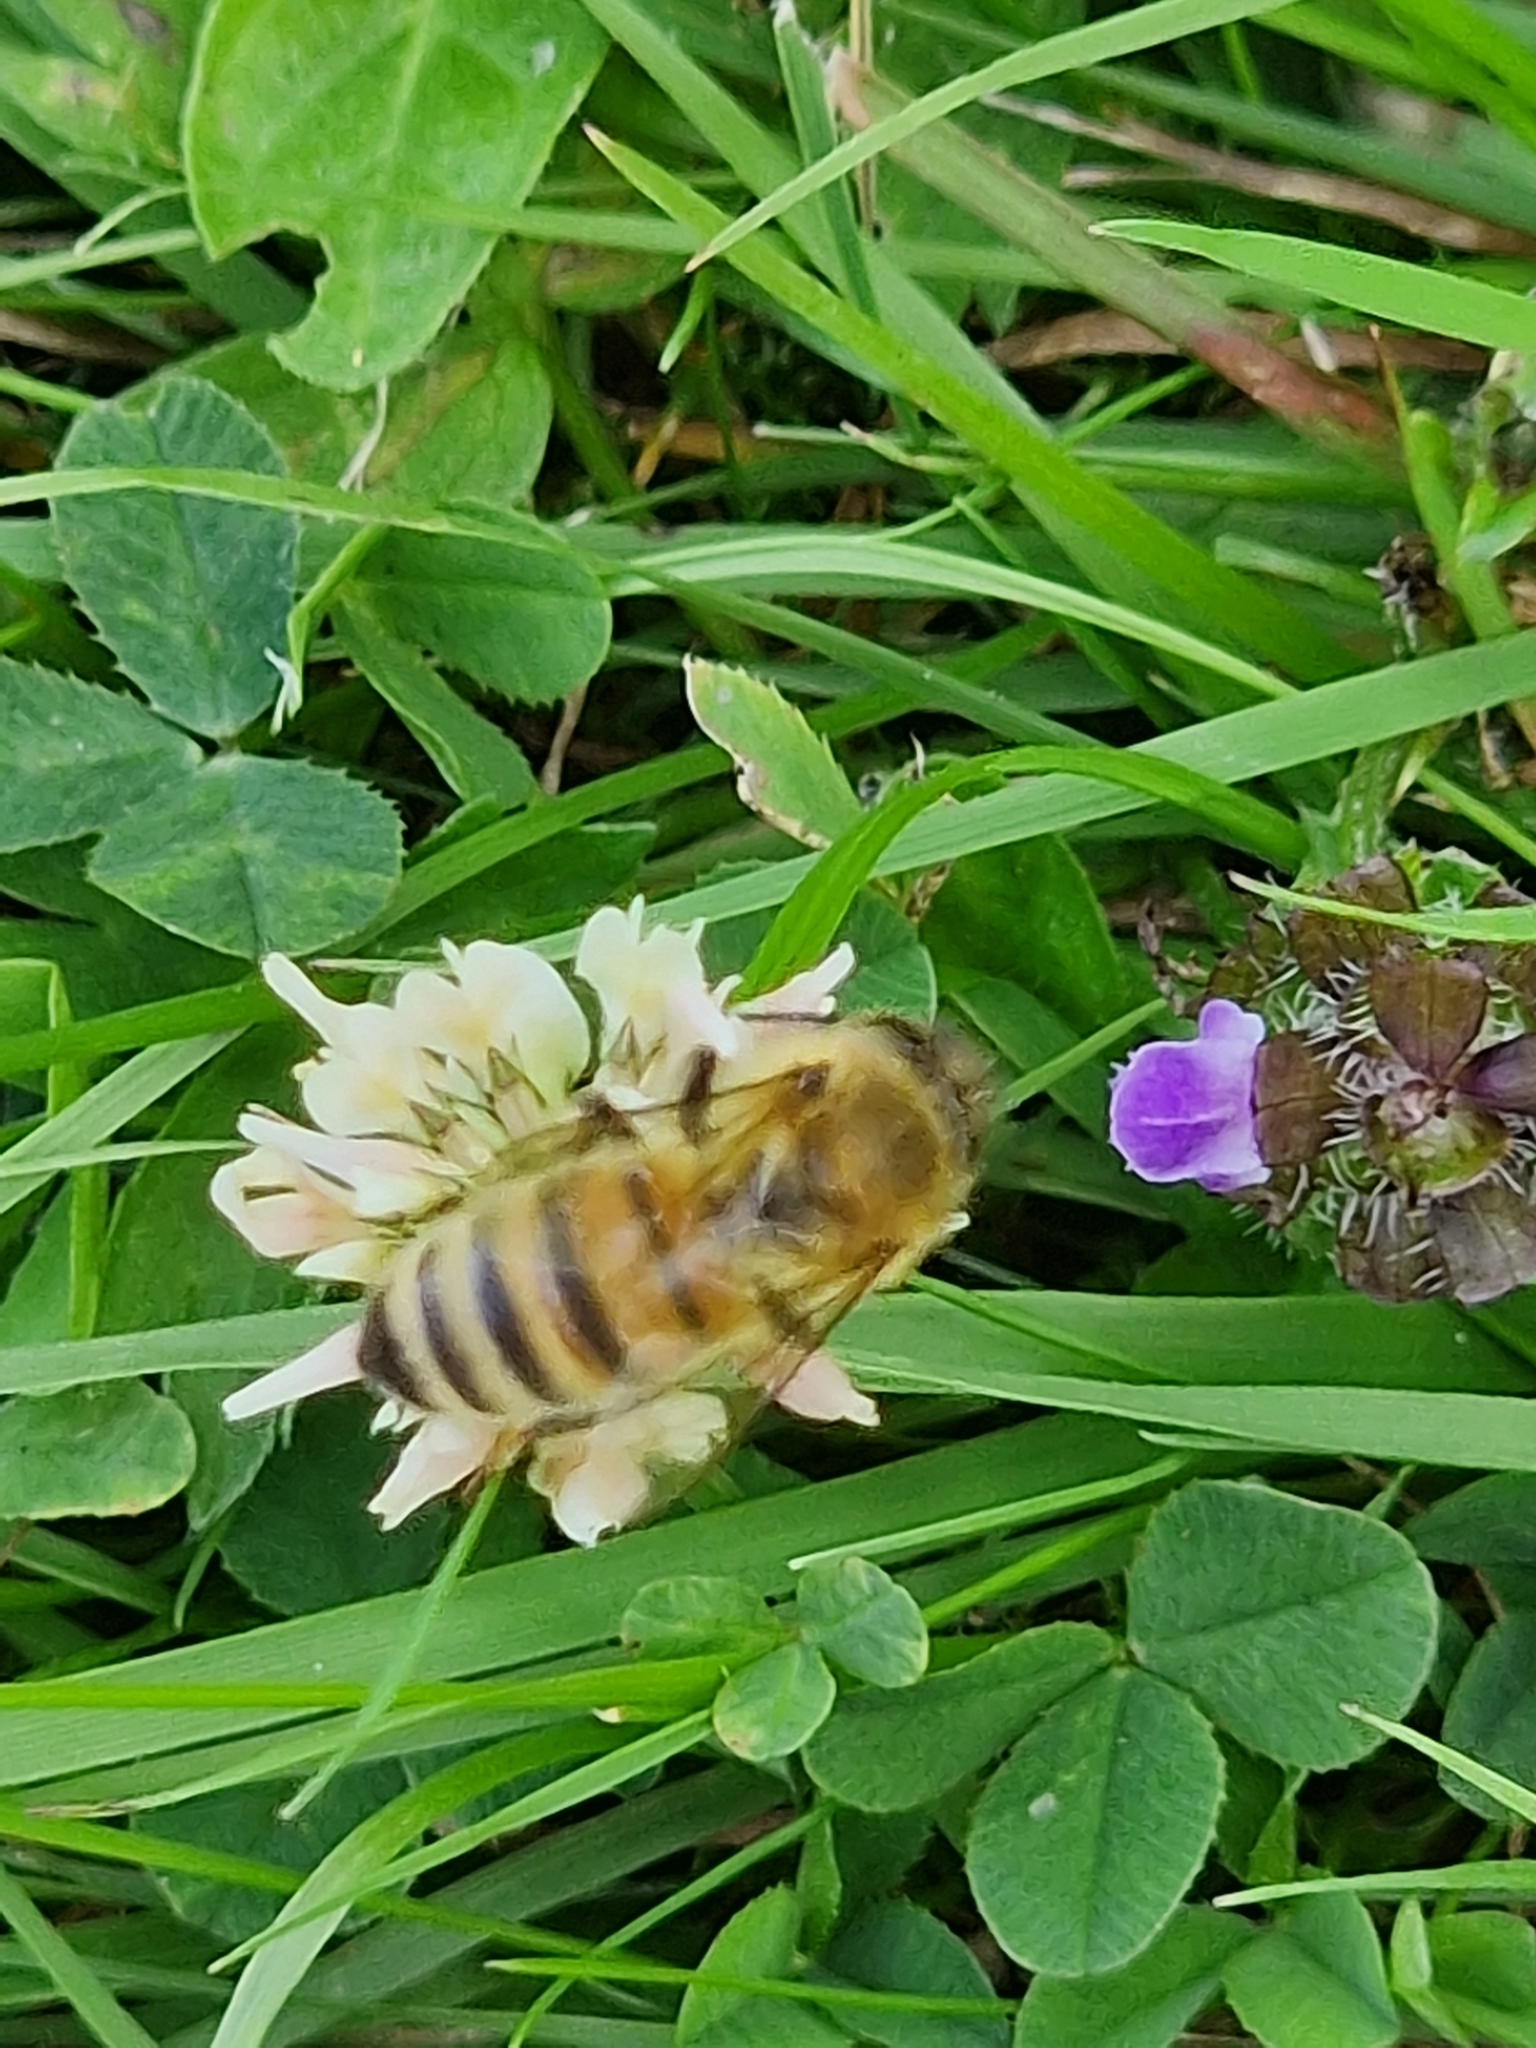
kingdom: Animalia
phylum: Arthropoda
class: Insecta
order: Hymenoptera
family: Apidae
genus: Apis
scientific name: Apis mellifera
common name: Honey bee
